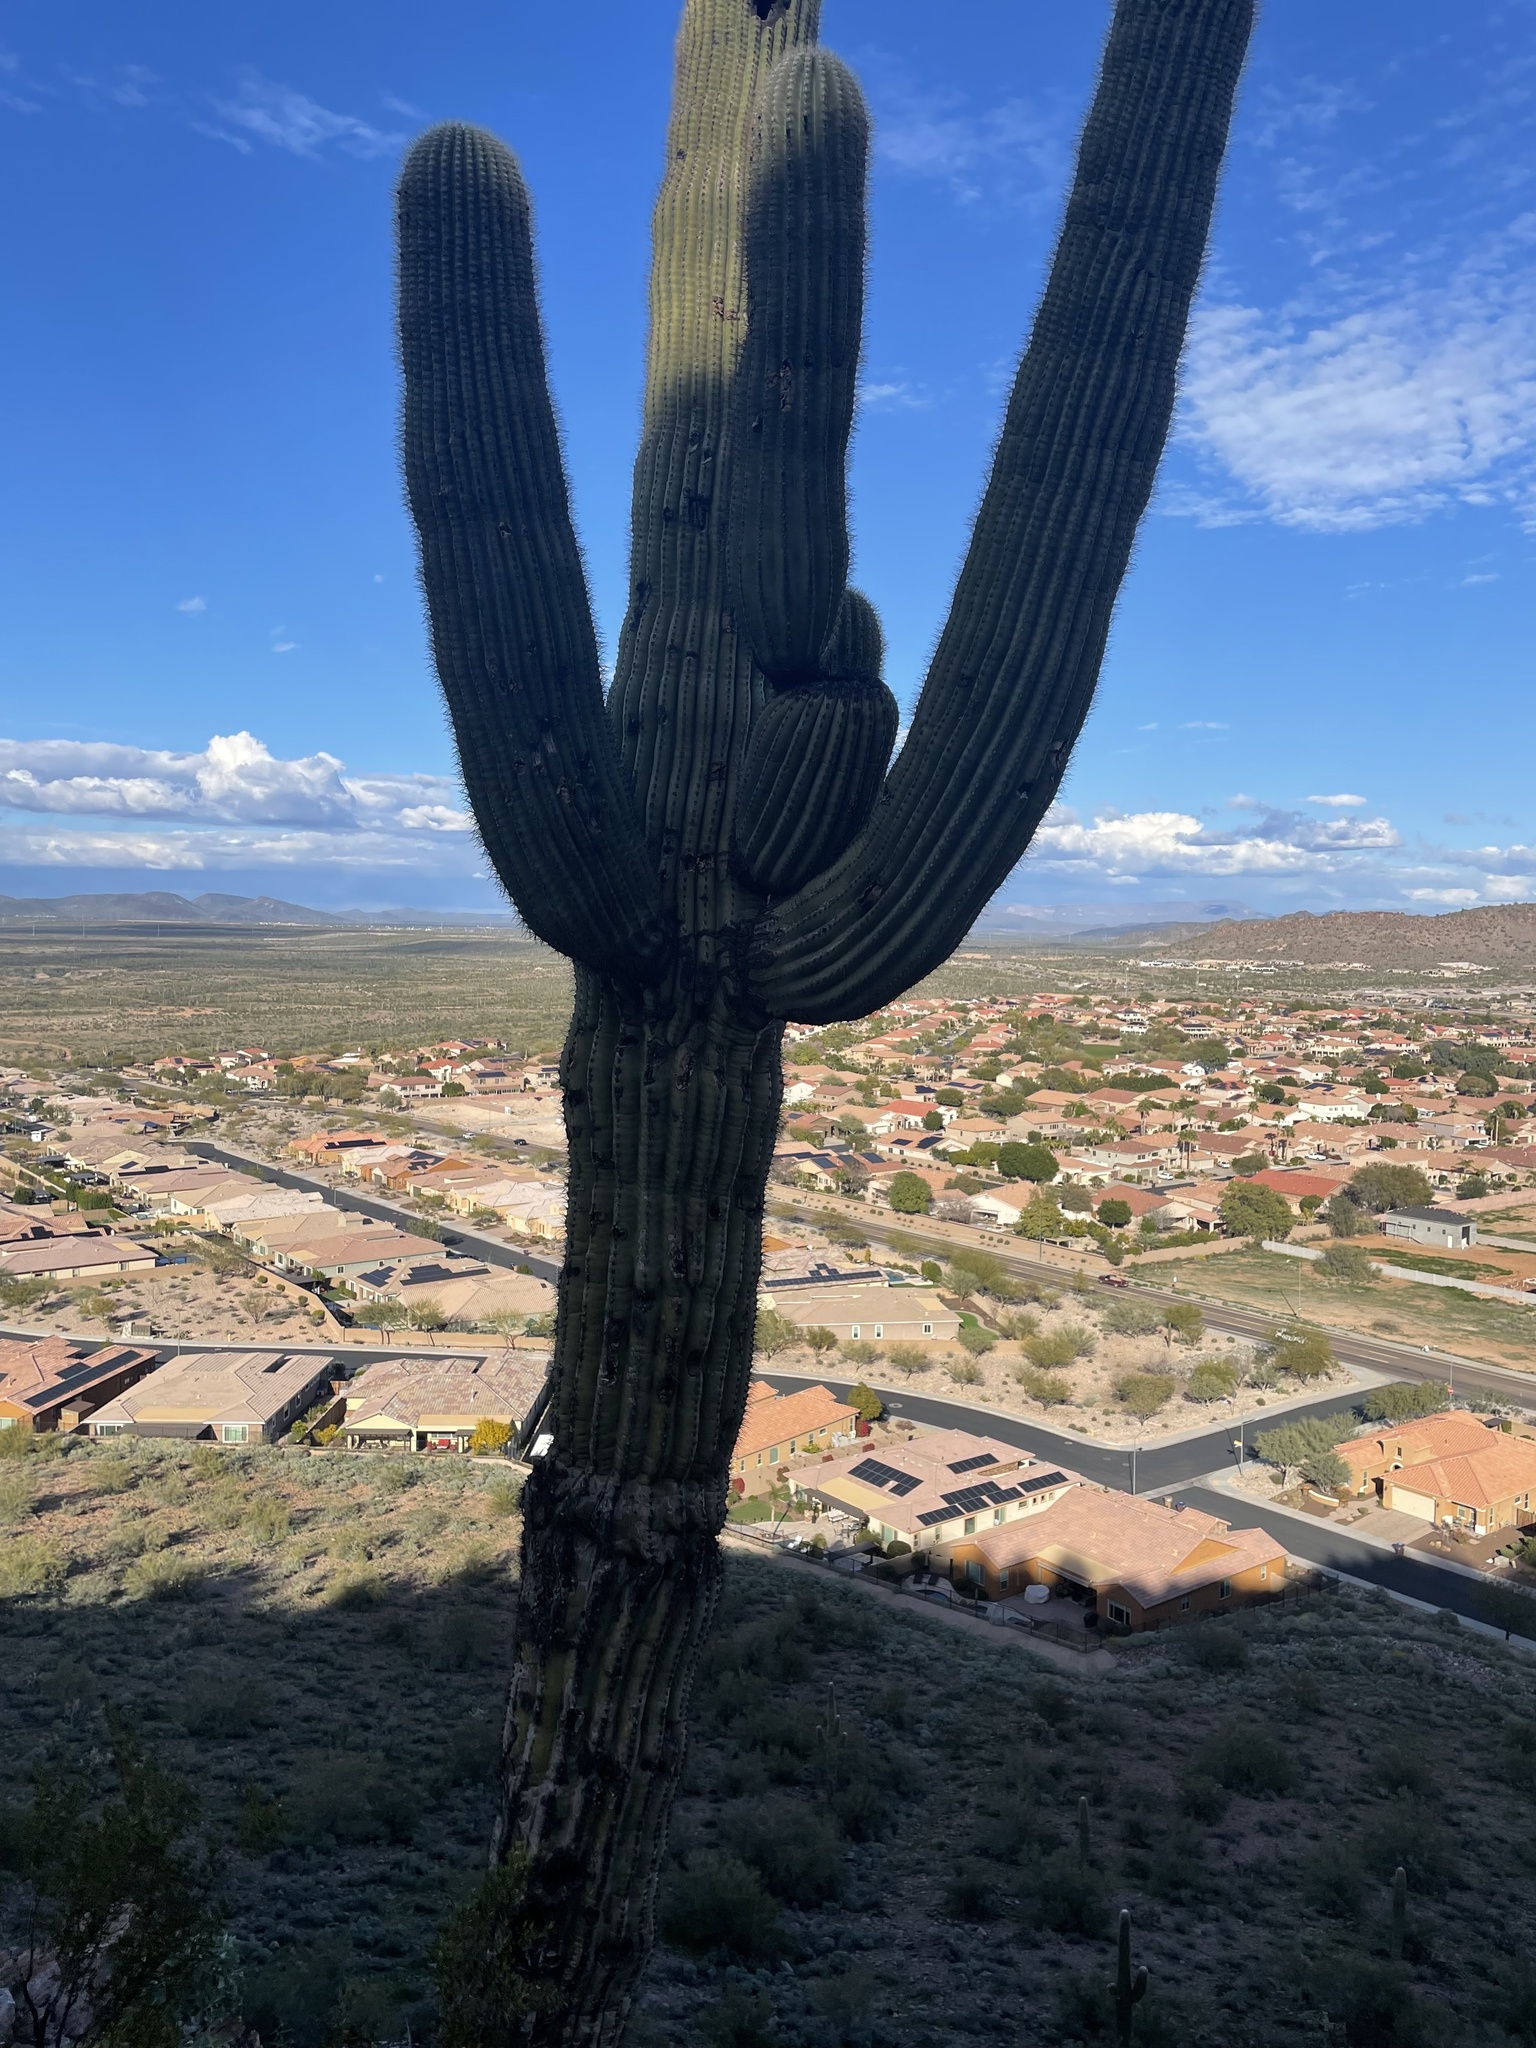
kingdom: Plantae
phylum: Tracheophyta
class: Magnoliopsida
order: Caryophyllales
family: Cactaceae
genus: Carnegiea
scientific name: Carnegiea gigantea
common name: Saguaro
